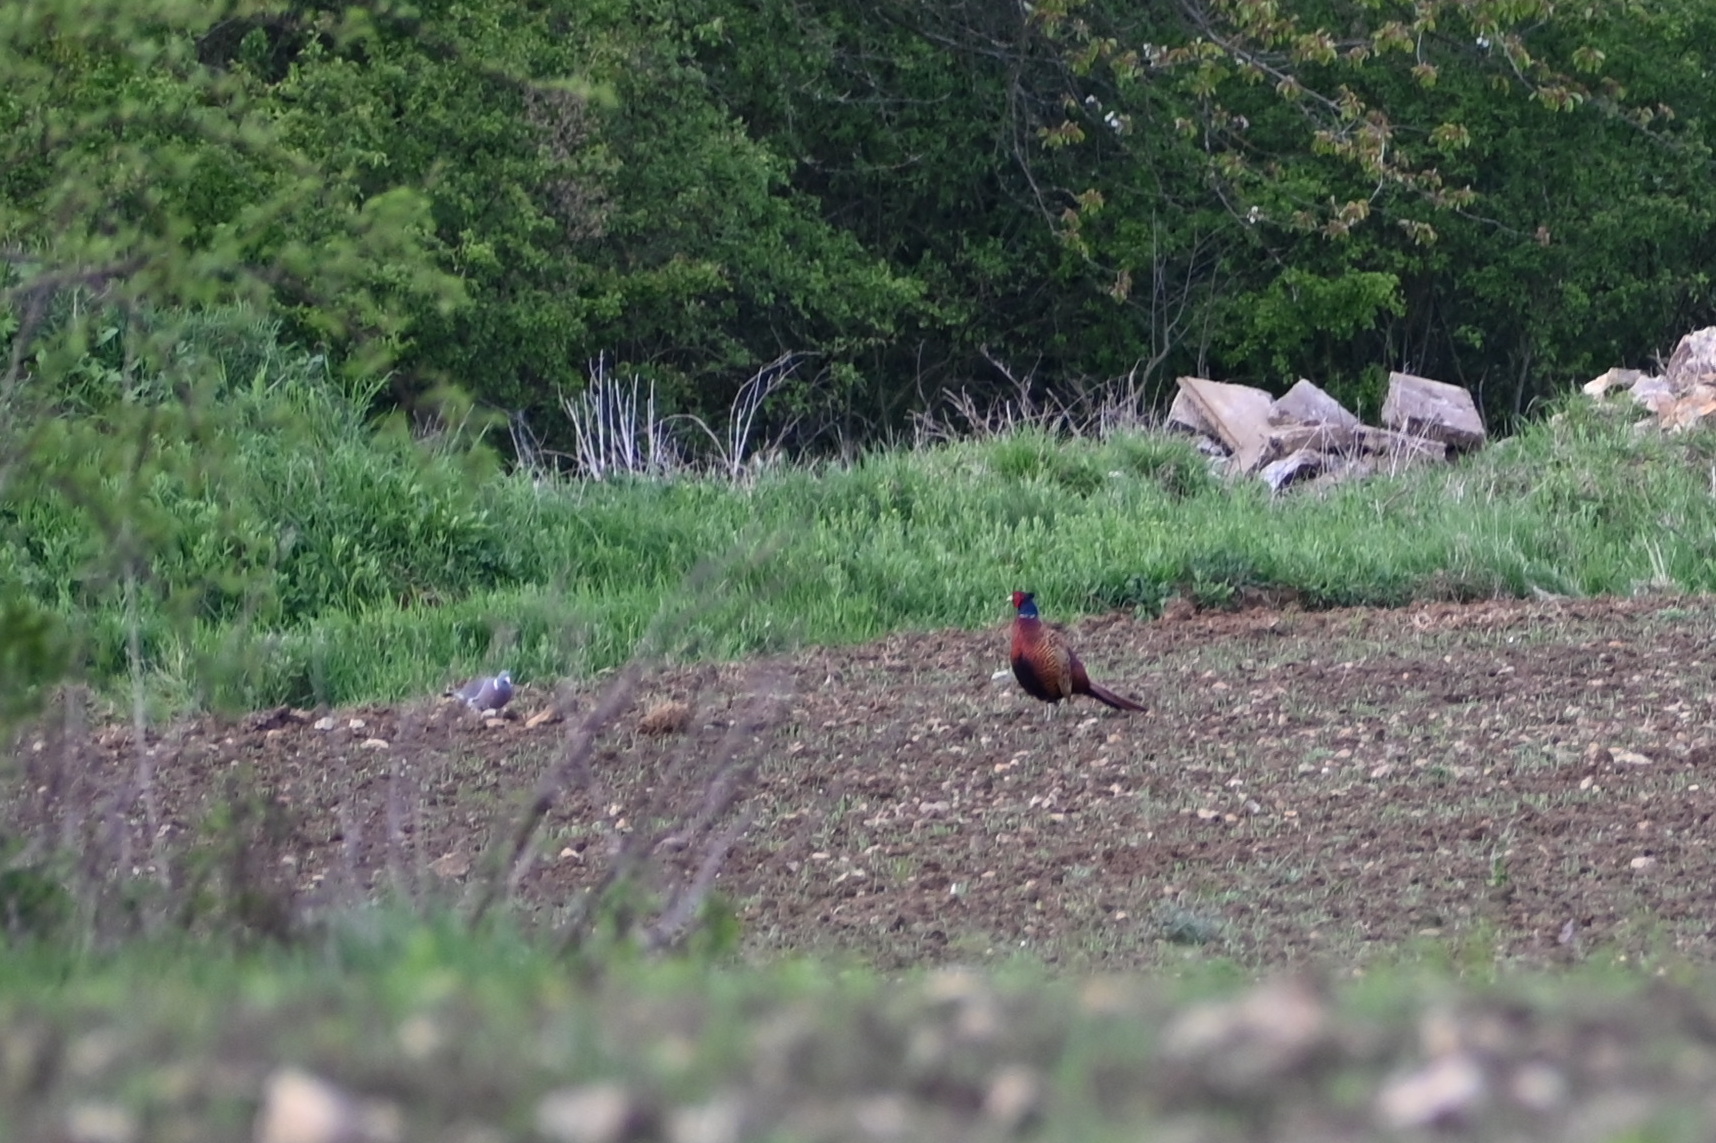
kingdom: Animalia
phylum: Chordata
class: Aves
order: Galliformes
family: Phasianidae
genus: Phasianus
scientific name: Phasianus colchicus
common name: Common pheasant
